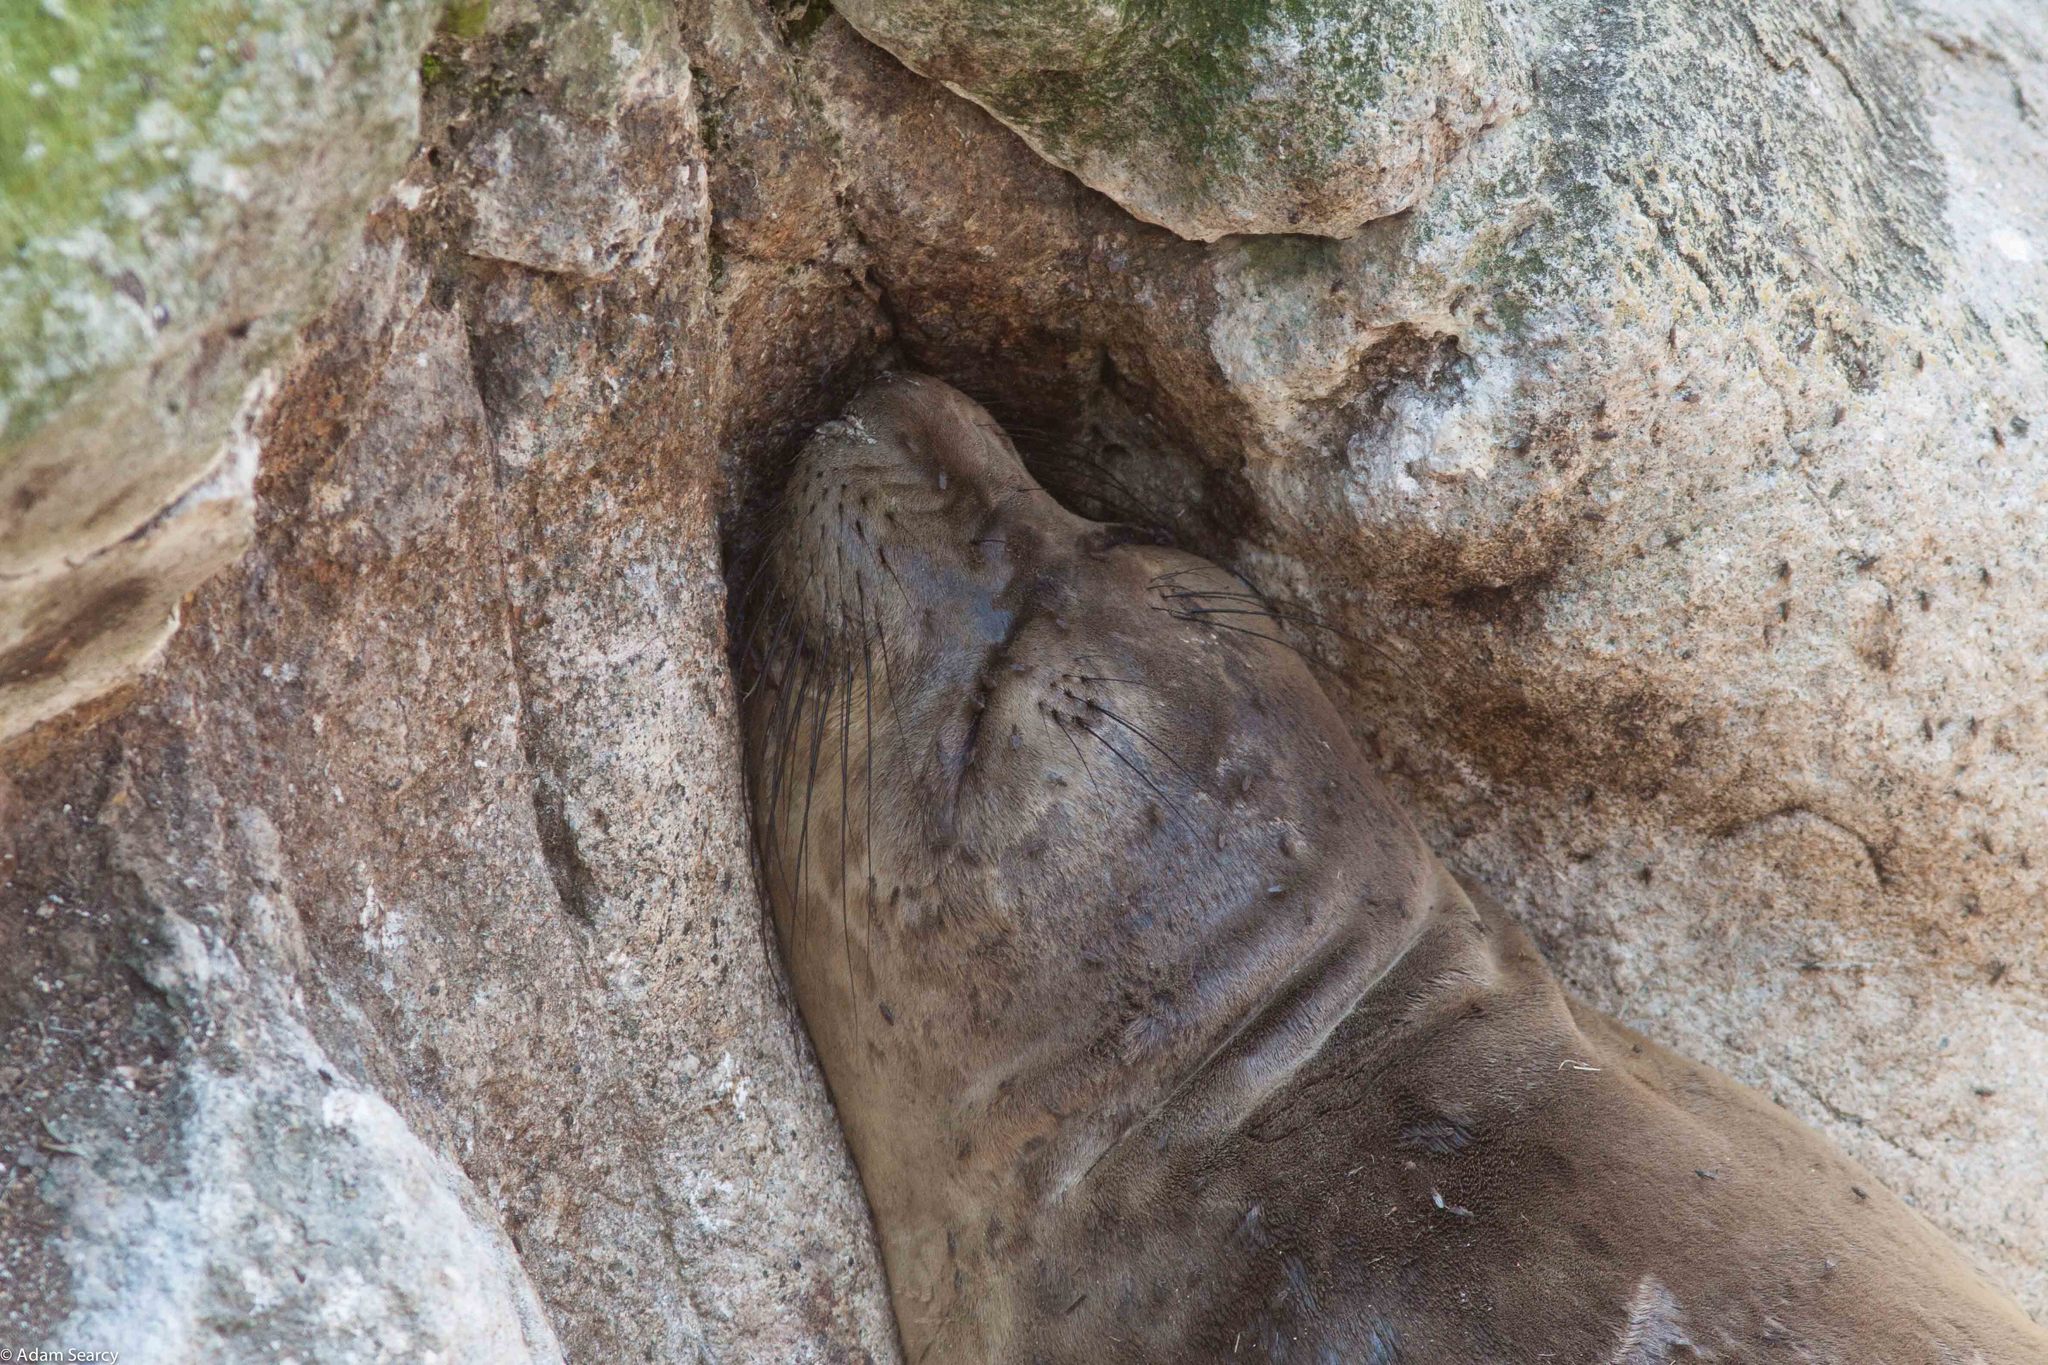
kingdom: Animalia
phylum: Chordata
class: Mammalia
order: Carnivora
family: Phocidae
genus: Mirounga
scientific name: Mirounga angustirostris
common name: Northern elephant seal
